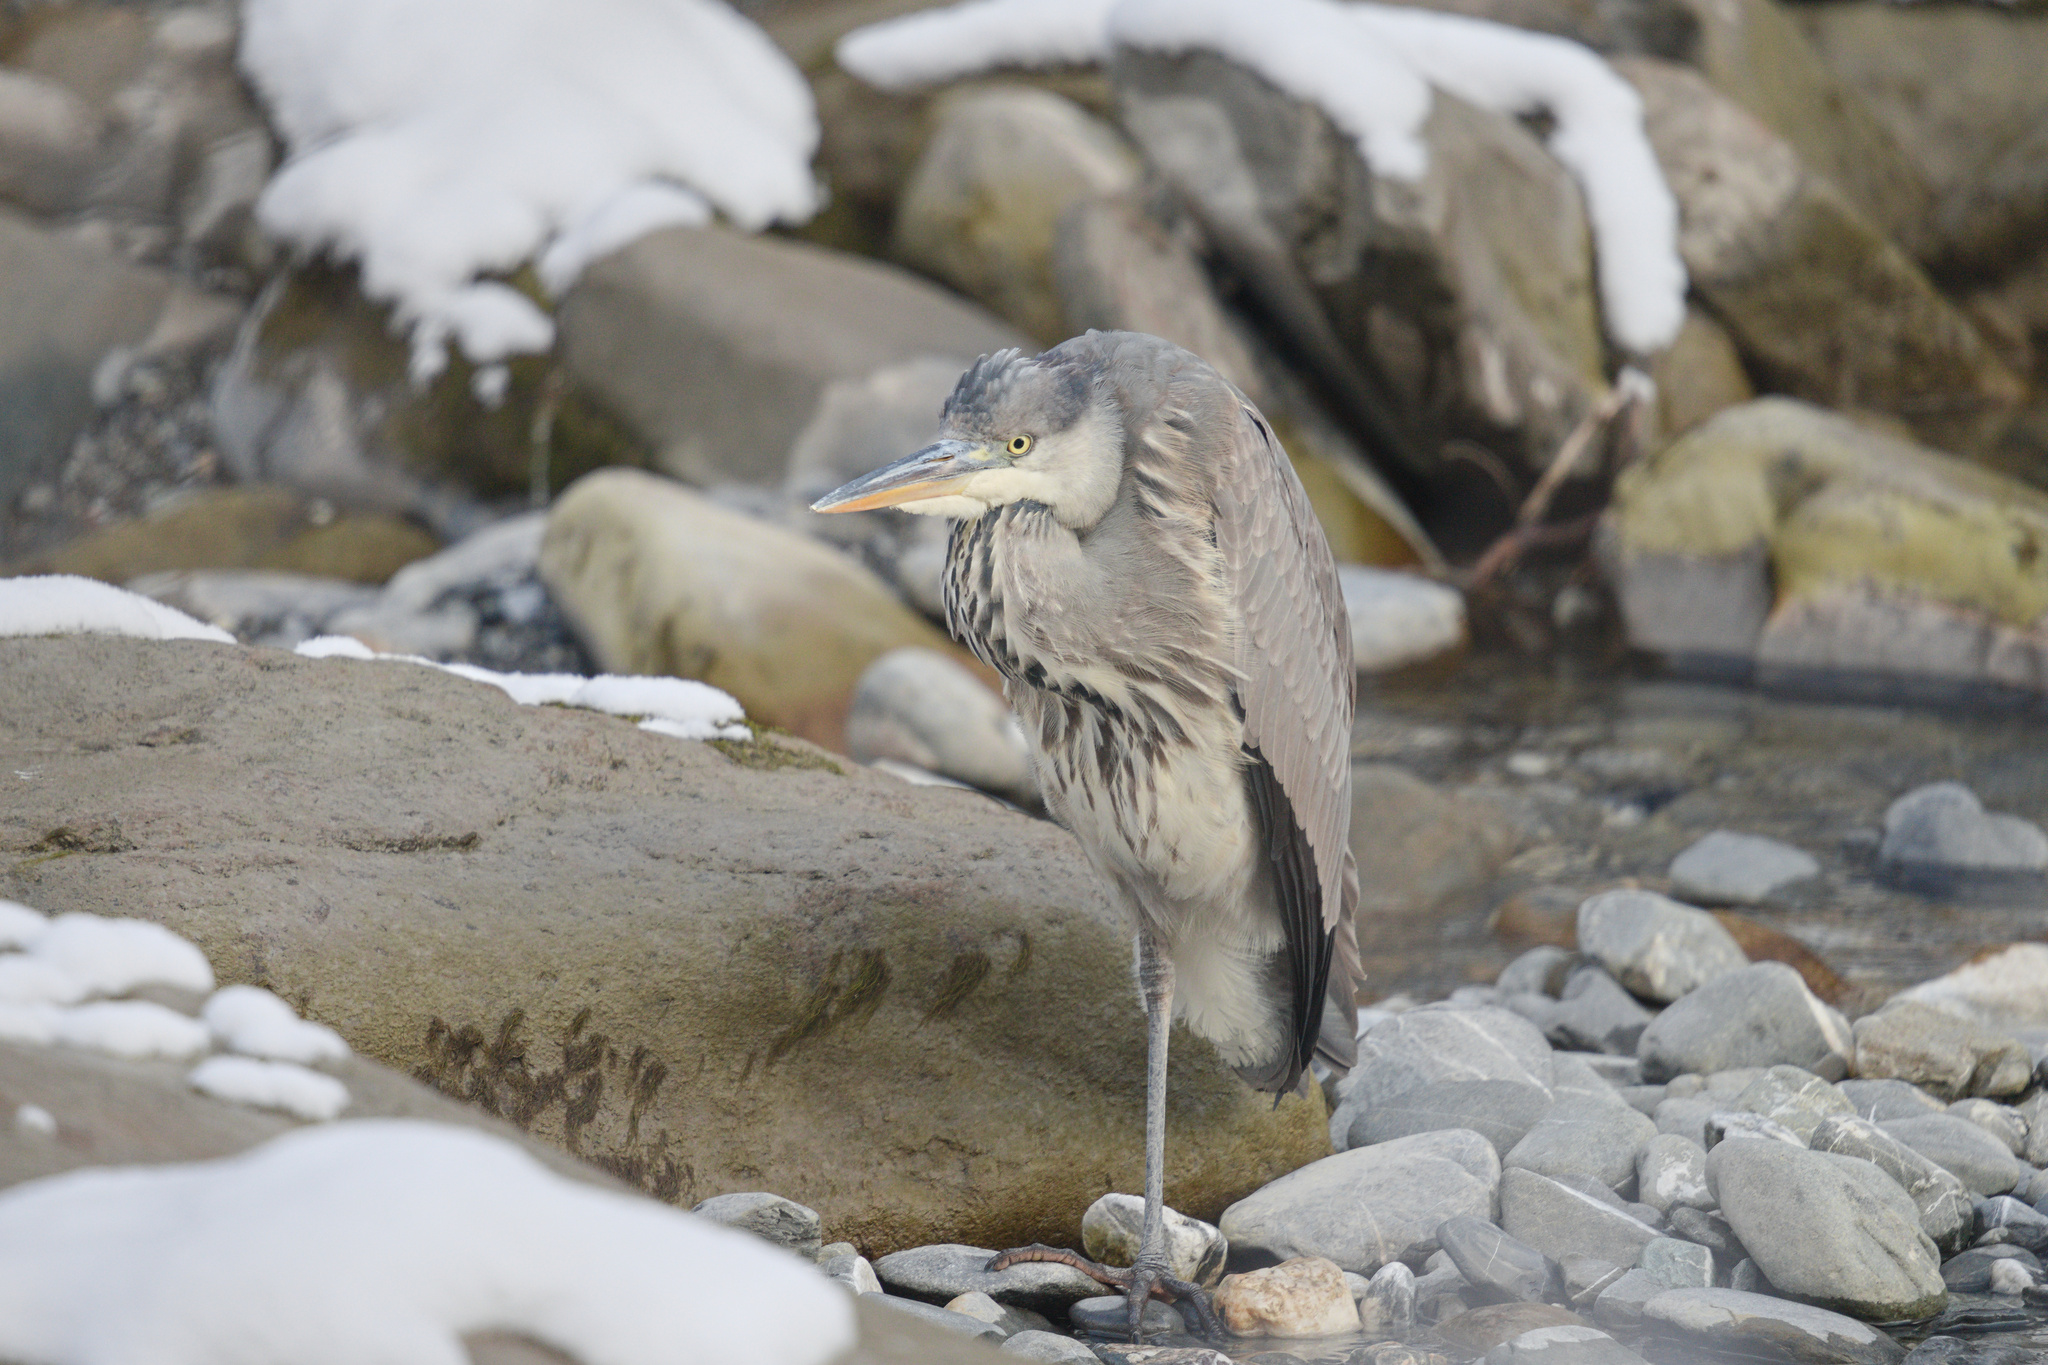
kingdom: Animalia
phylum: Chordata
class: Aves
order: Pelecaniformes
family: Ardeidae
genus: Ardea
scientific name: Ardea cinerea
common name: Grey heron
